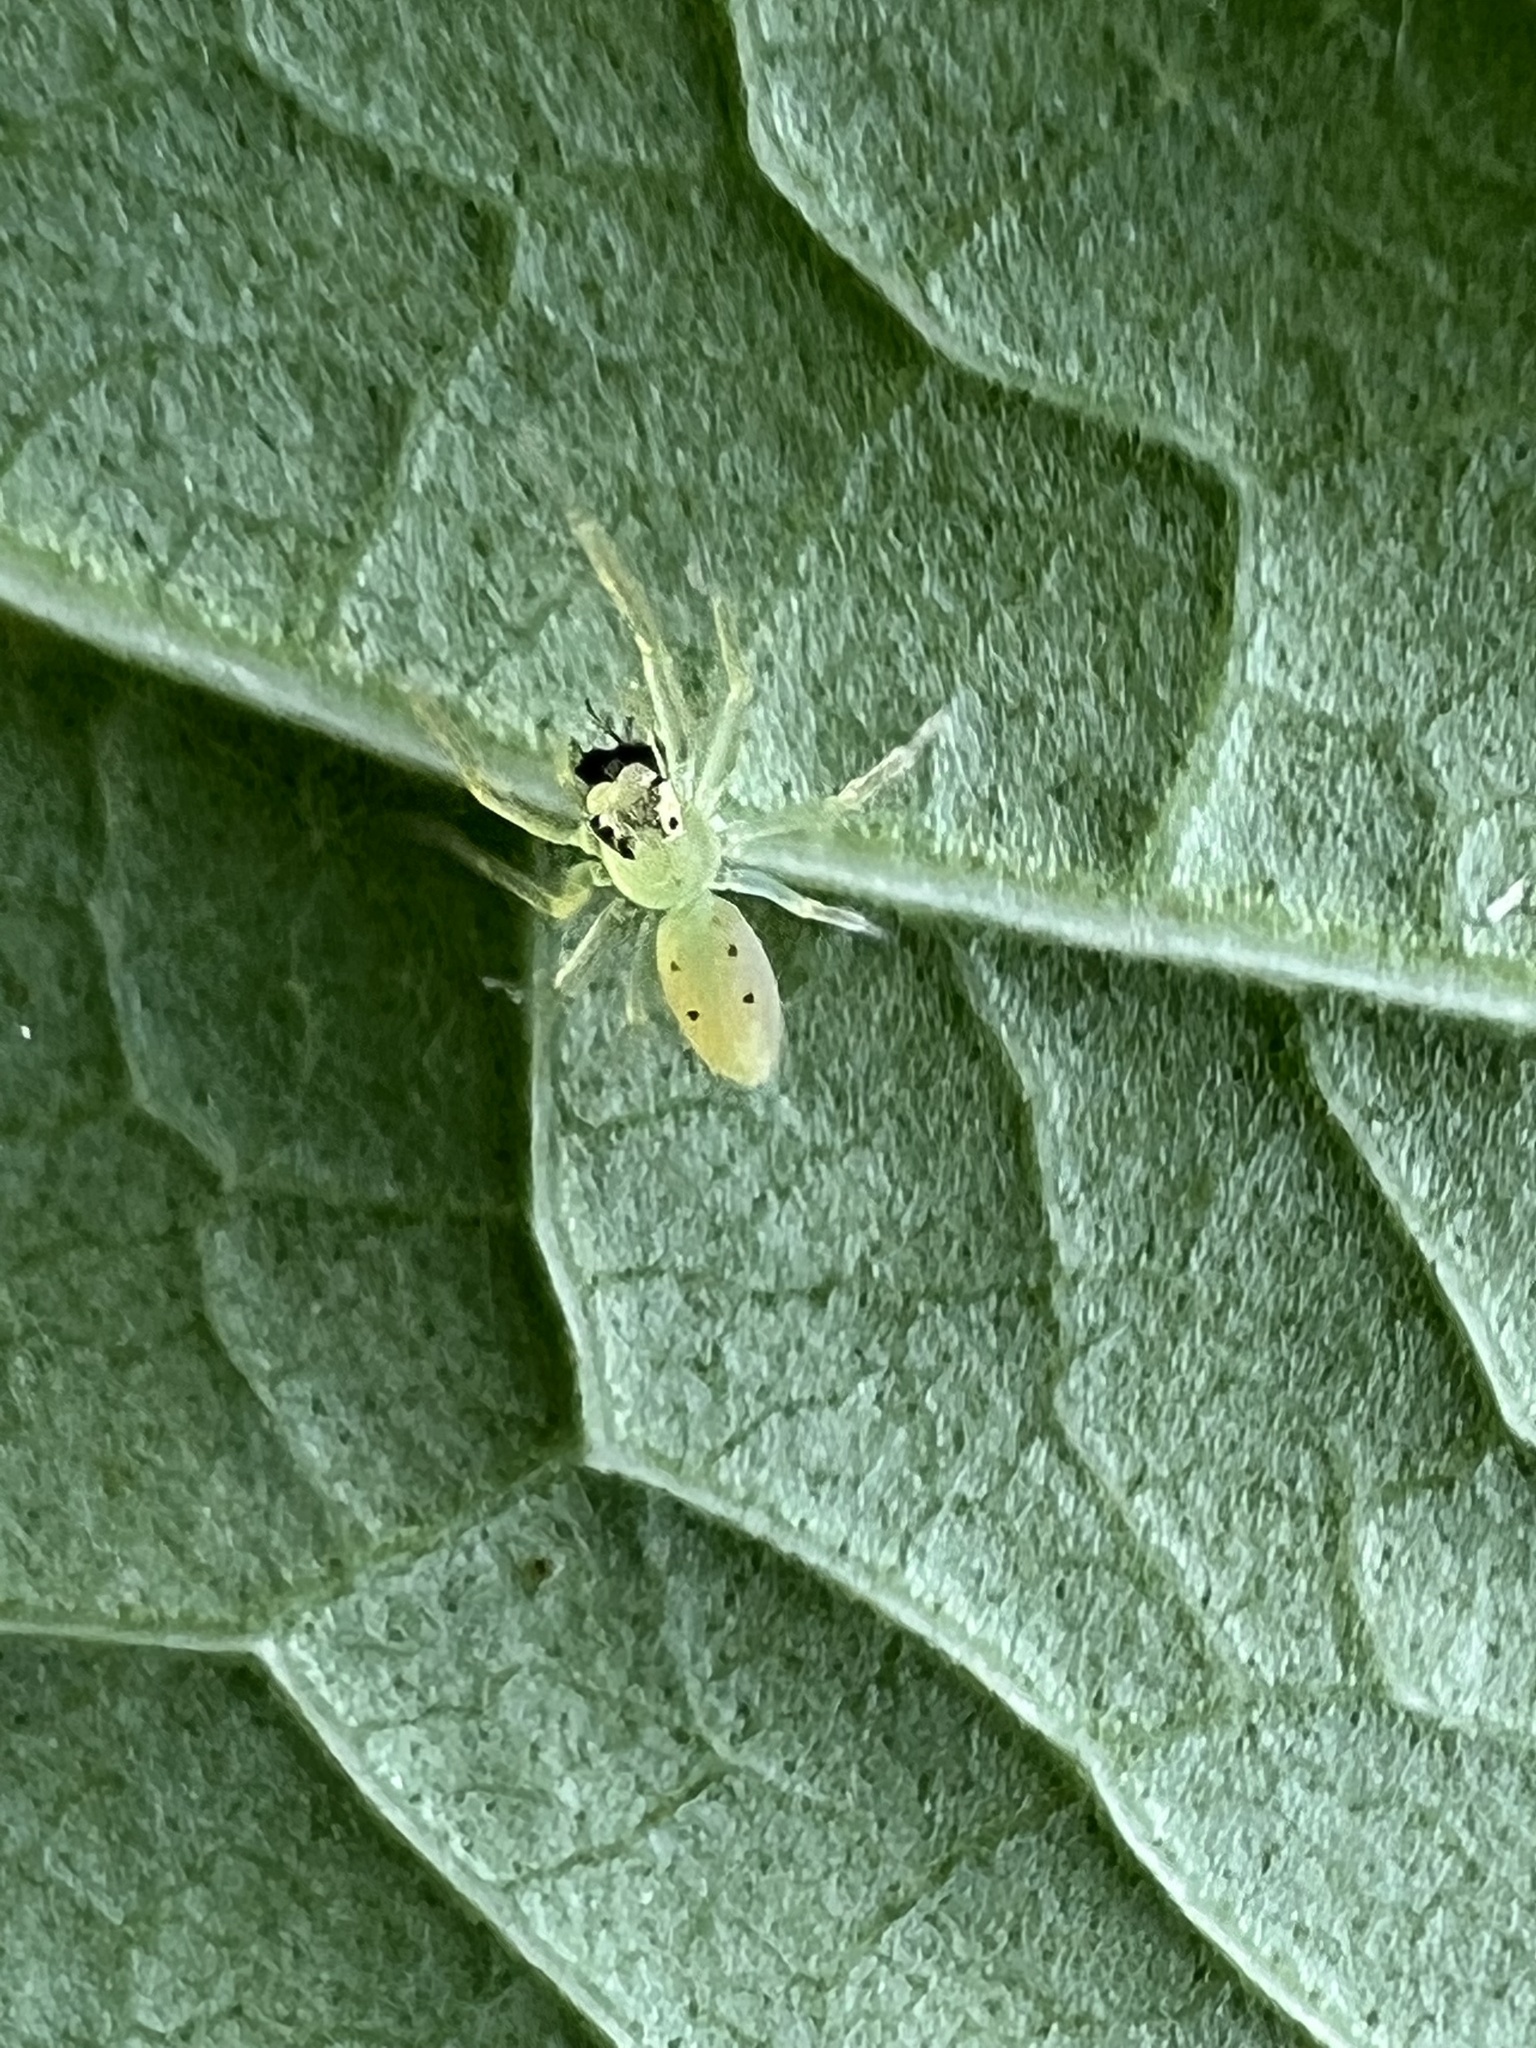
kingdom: Animalia
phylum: Arthropoda
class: Arachnida
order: Araneae
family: Salticidae
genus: Lyssomanes
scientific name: Lyssomanes viridis
